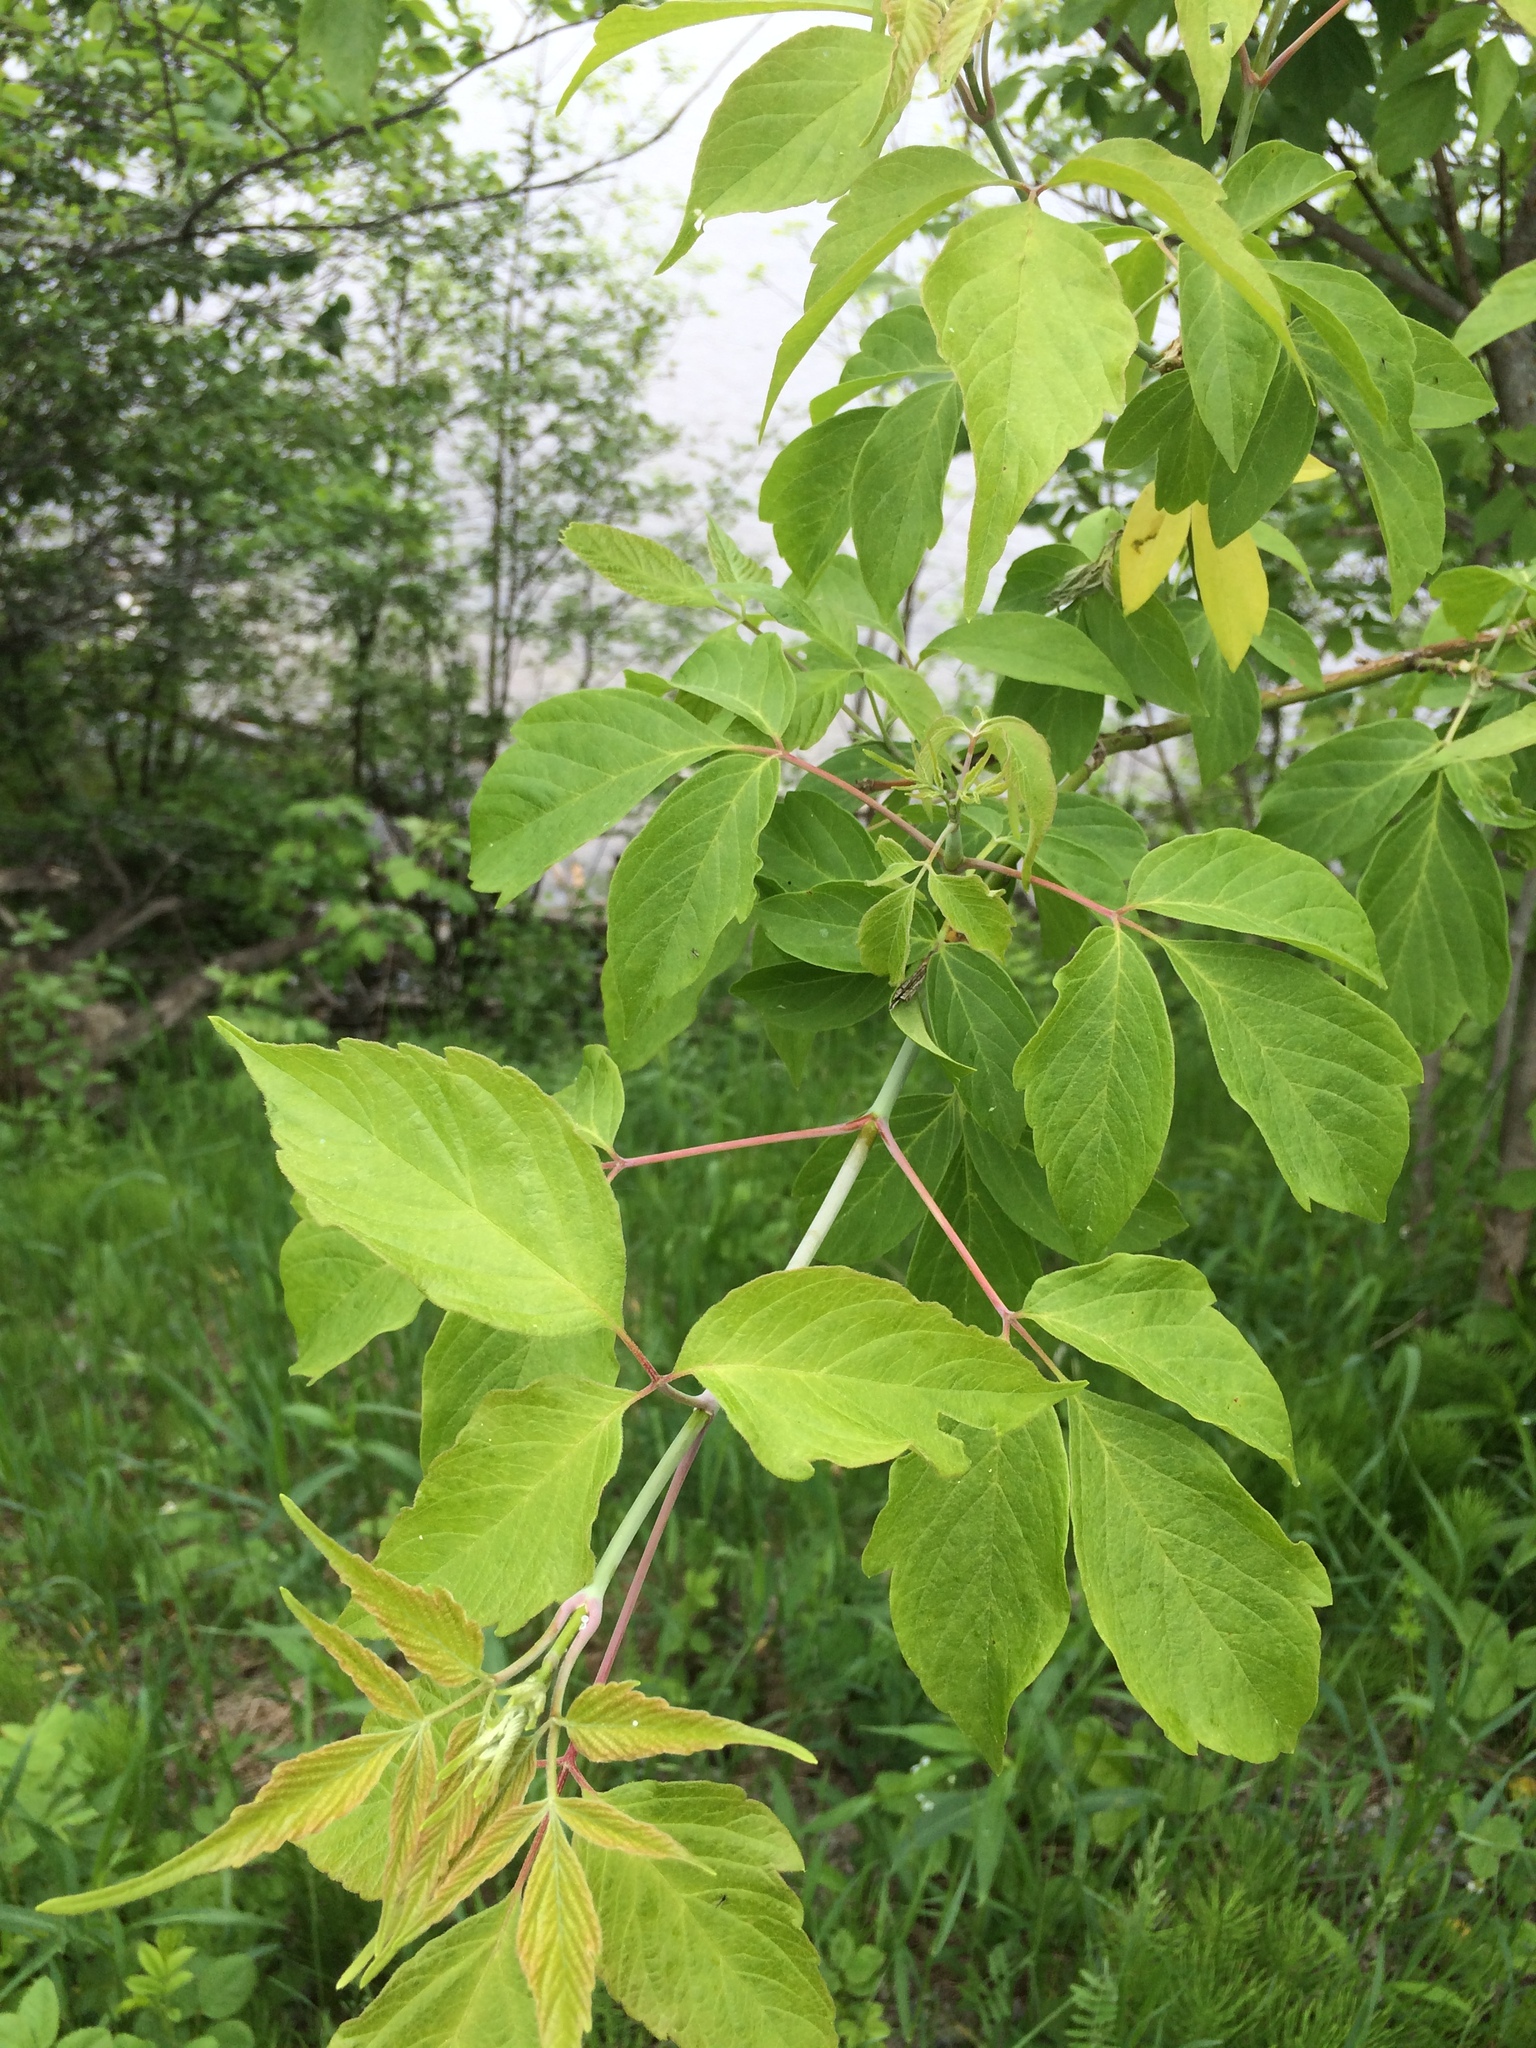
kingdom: Plantae
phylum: Tracheophyta
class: Magnoliopsida
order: Sapindales
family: Sapindaceae
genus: Acer
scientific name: Acer negundo
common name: Ashleaf maple
